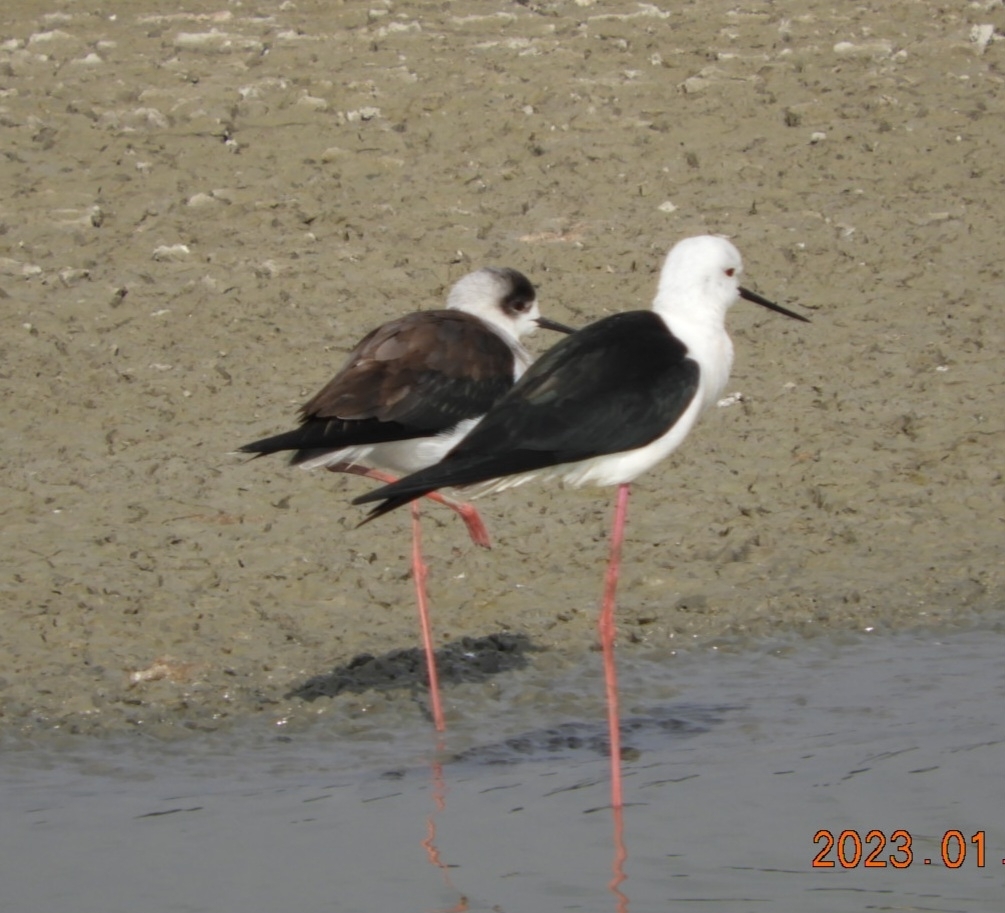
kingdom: Animalia
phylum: Chordata
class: Aves
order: Charadriiformes
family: Recurvirostridae
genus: Himantopus
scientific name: Himantopus himantopus
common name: Black-winged stilt
